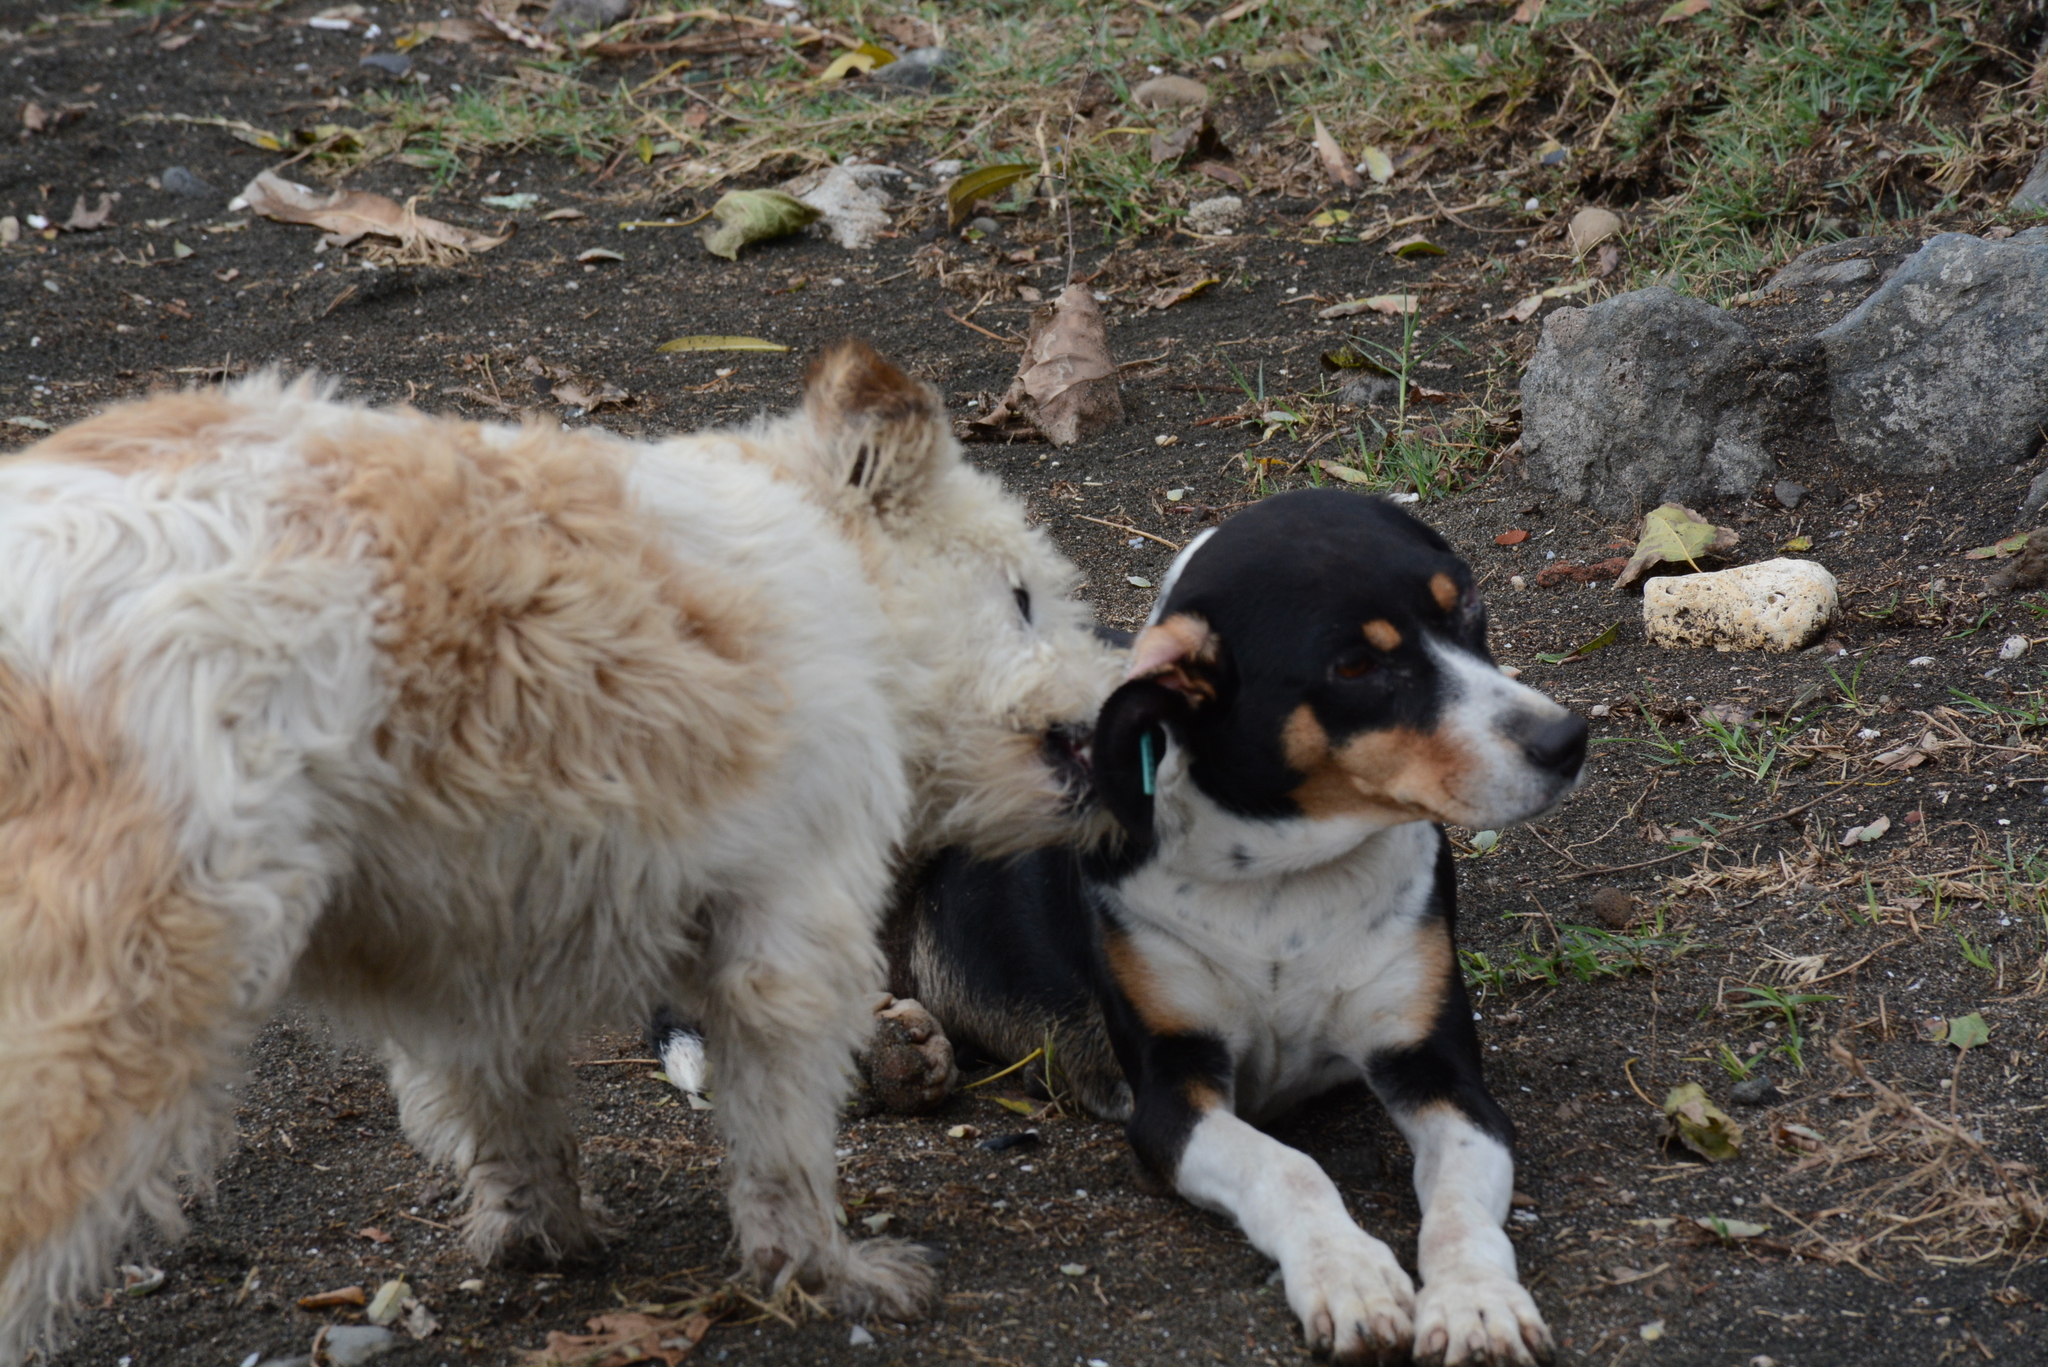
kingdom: Animalia
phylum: Chordata
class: Mammalia
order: Carnivora
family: Canidae
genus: Canis
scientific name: Canis lupus
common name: Gray wolf
